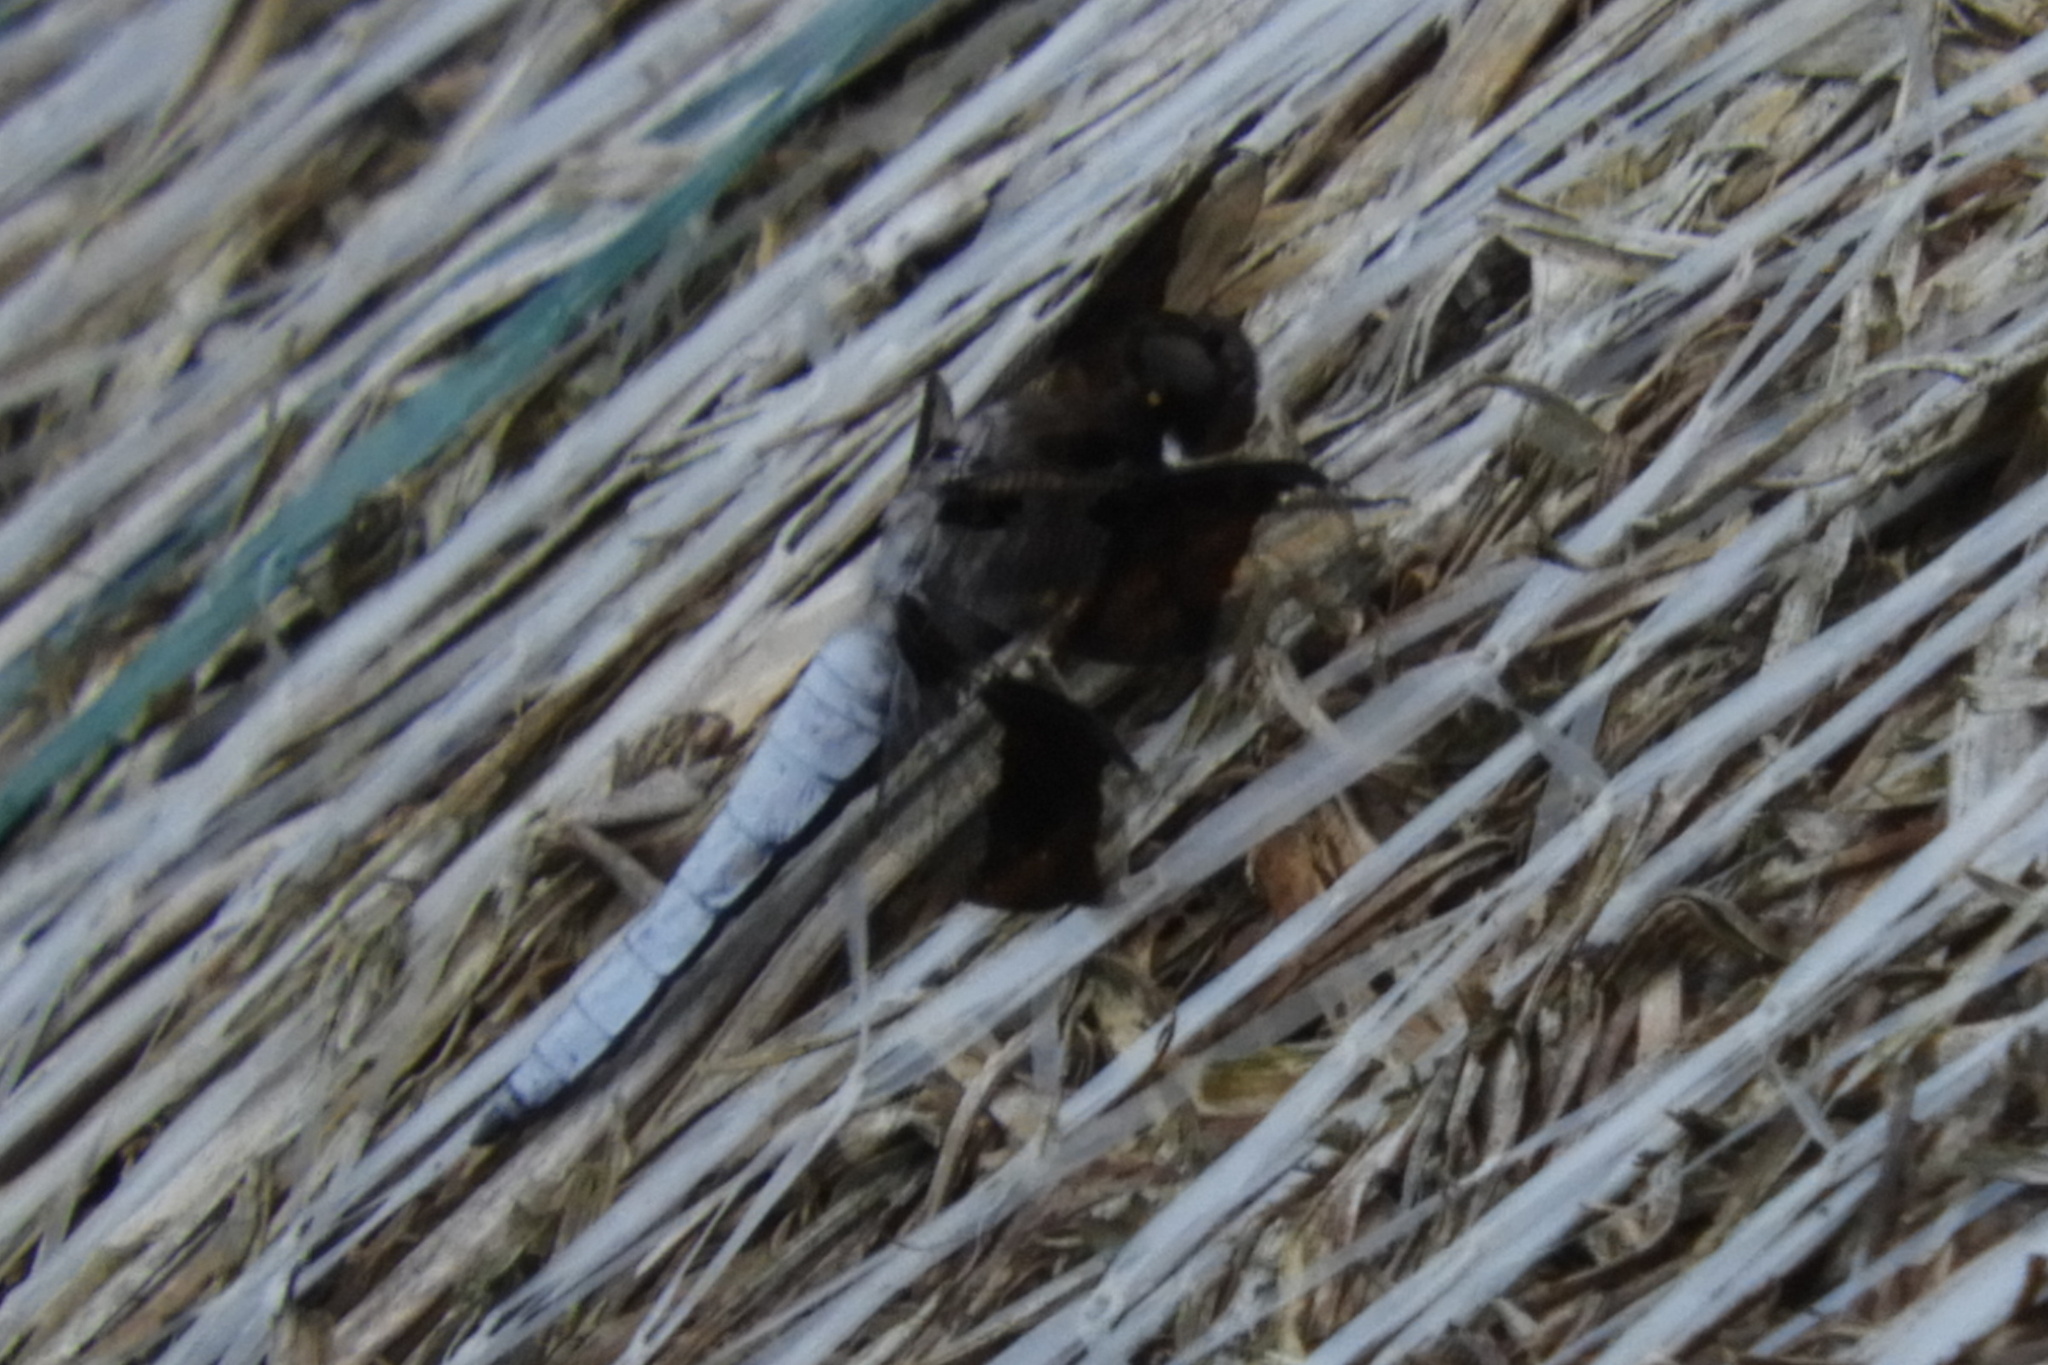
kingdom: Animalia
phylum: Arthropoda
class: Insecta
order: Odonata
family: Libellulidae
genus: Plathemis
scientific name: Plathemis lydia
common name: Common whitetail
